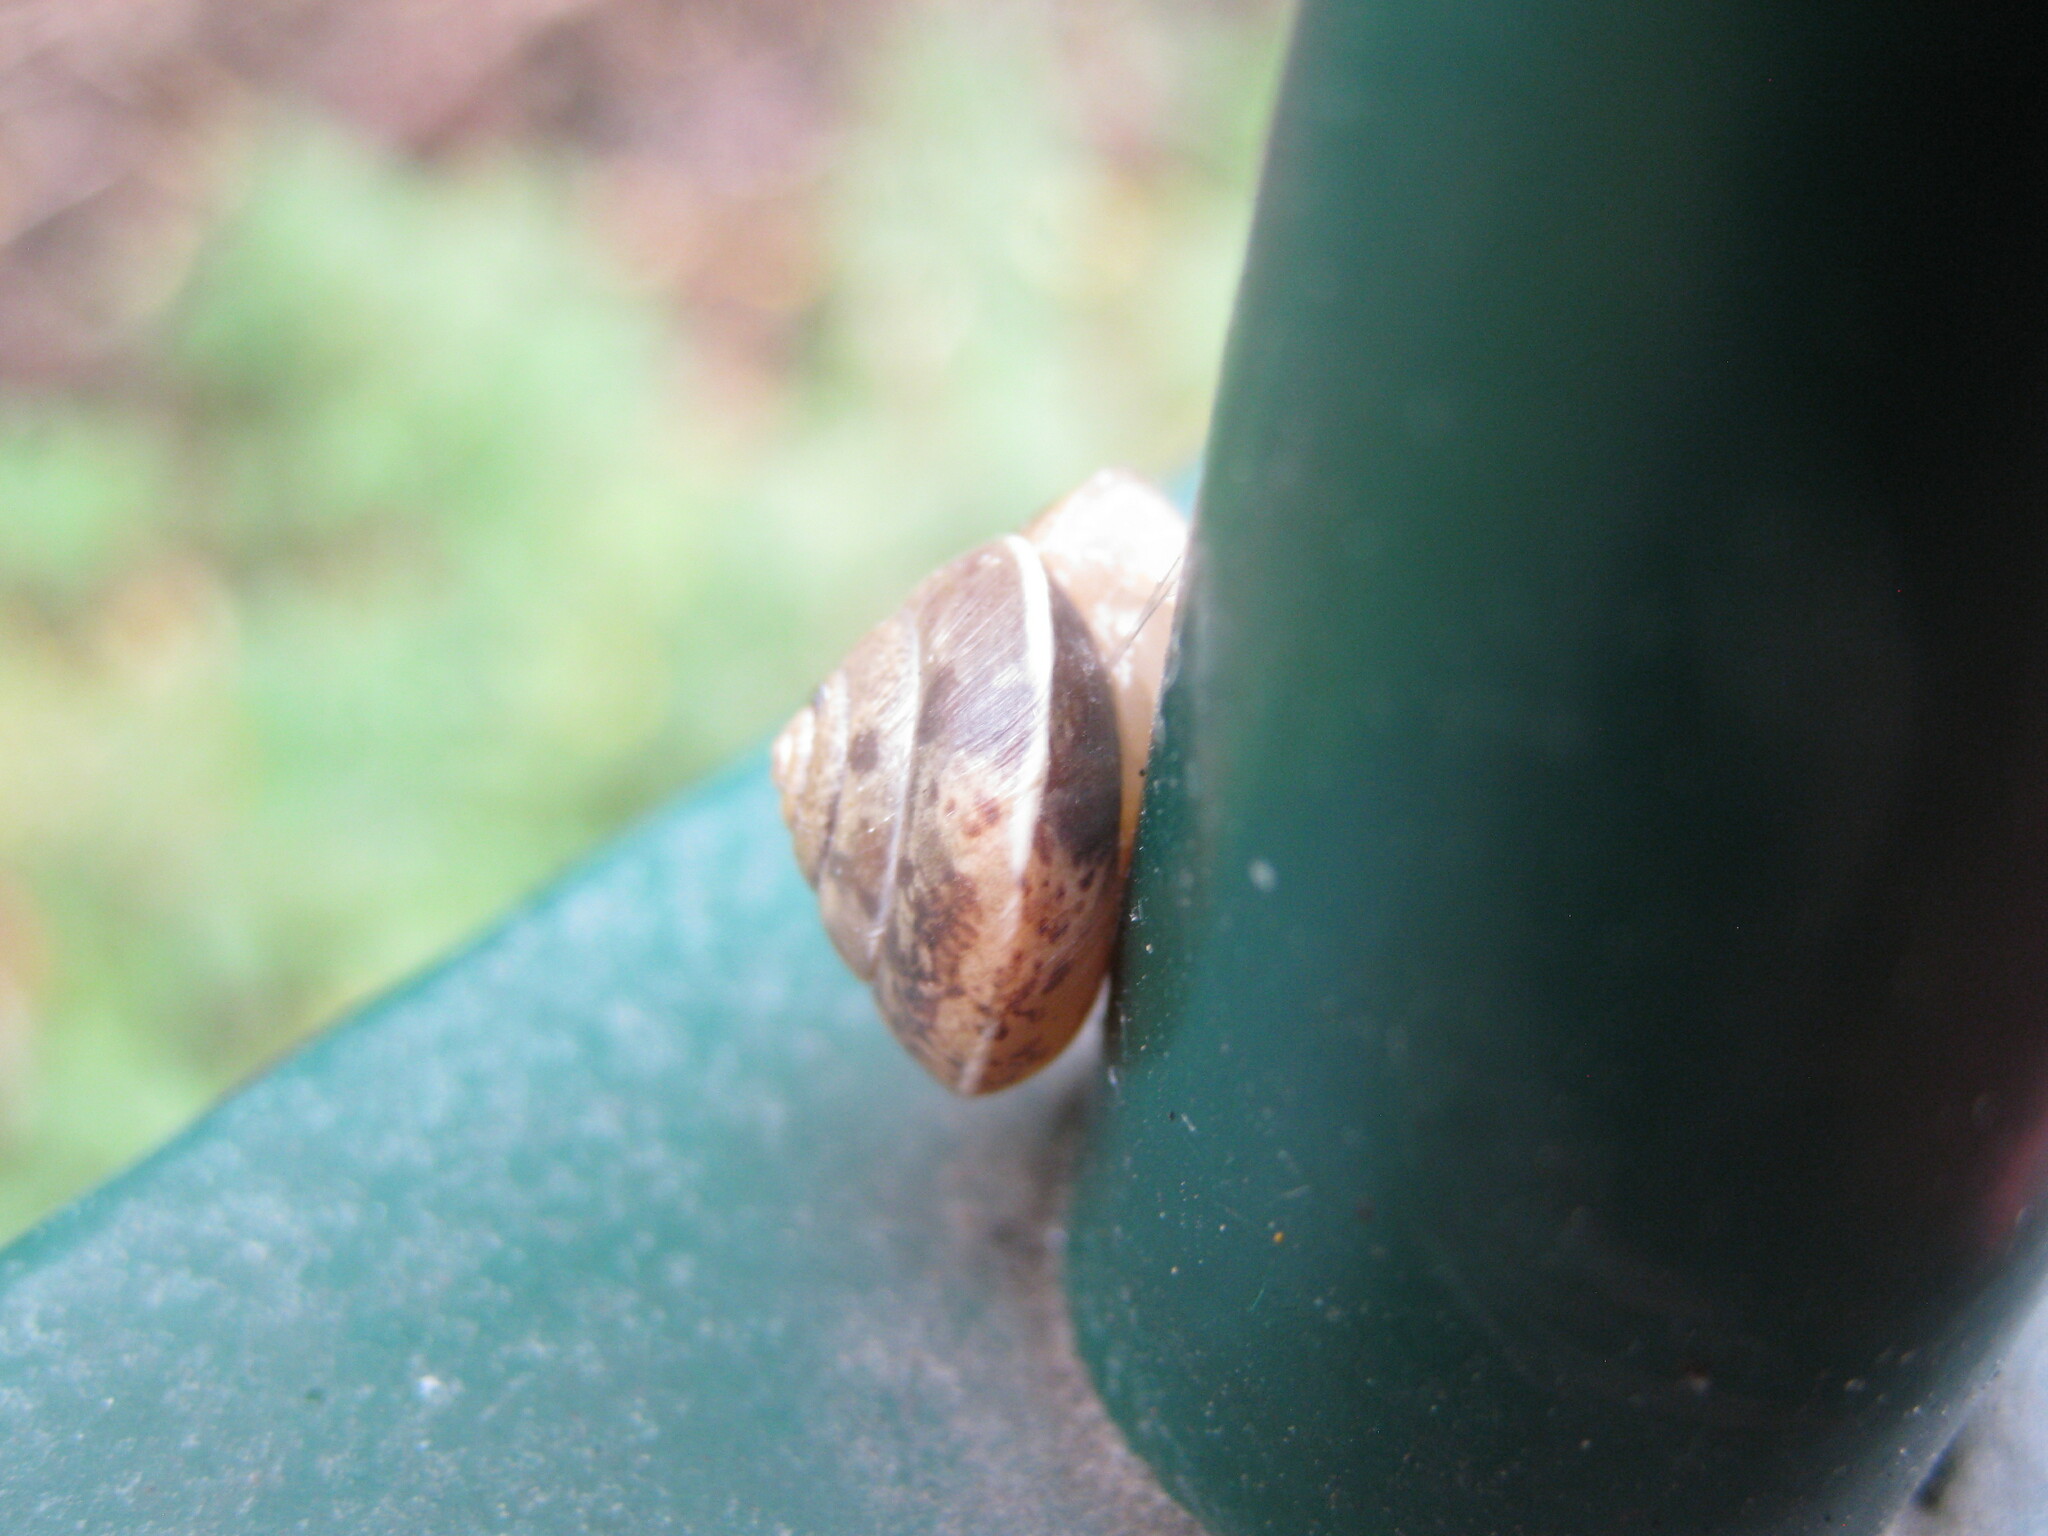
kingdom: Animalia
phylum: Mollusca
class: Gastropoda
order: Stylommatophora
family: Hygromiidae
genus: Hygromia
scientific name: Hygromia cinctella
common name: Girdled snail
